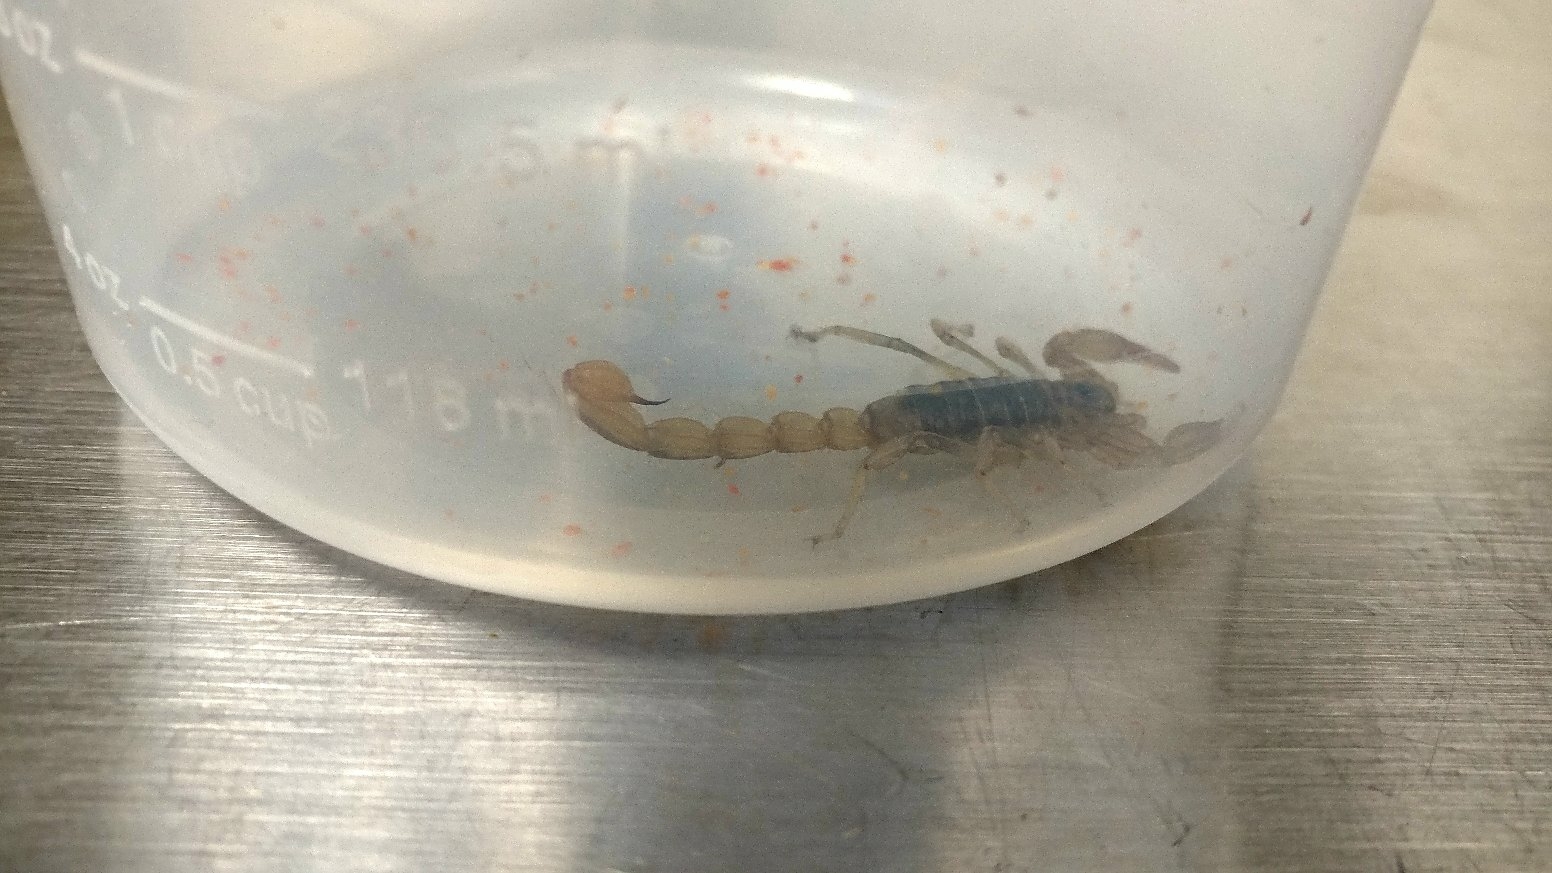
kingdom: Animalia
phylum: Arthropoda
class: Arachnida
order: Scorpiones
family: Vaejovidae
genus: Paruroctonus
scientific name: Paruroctonus silvestrii
